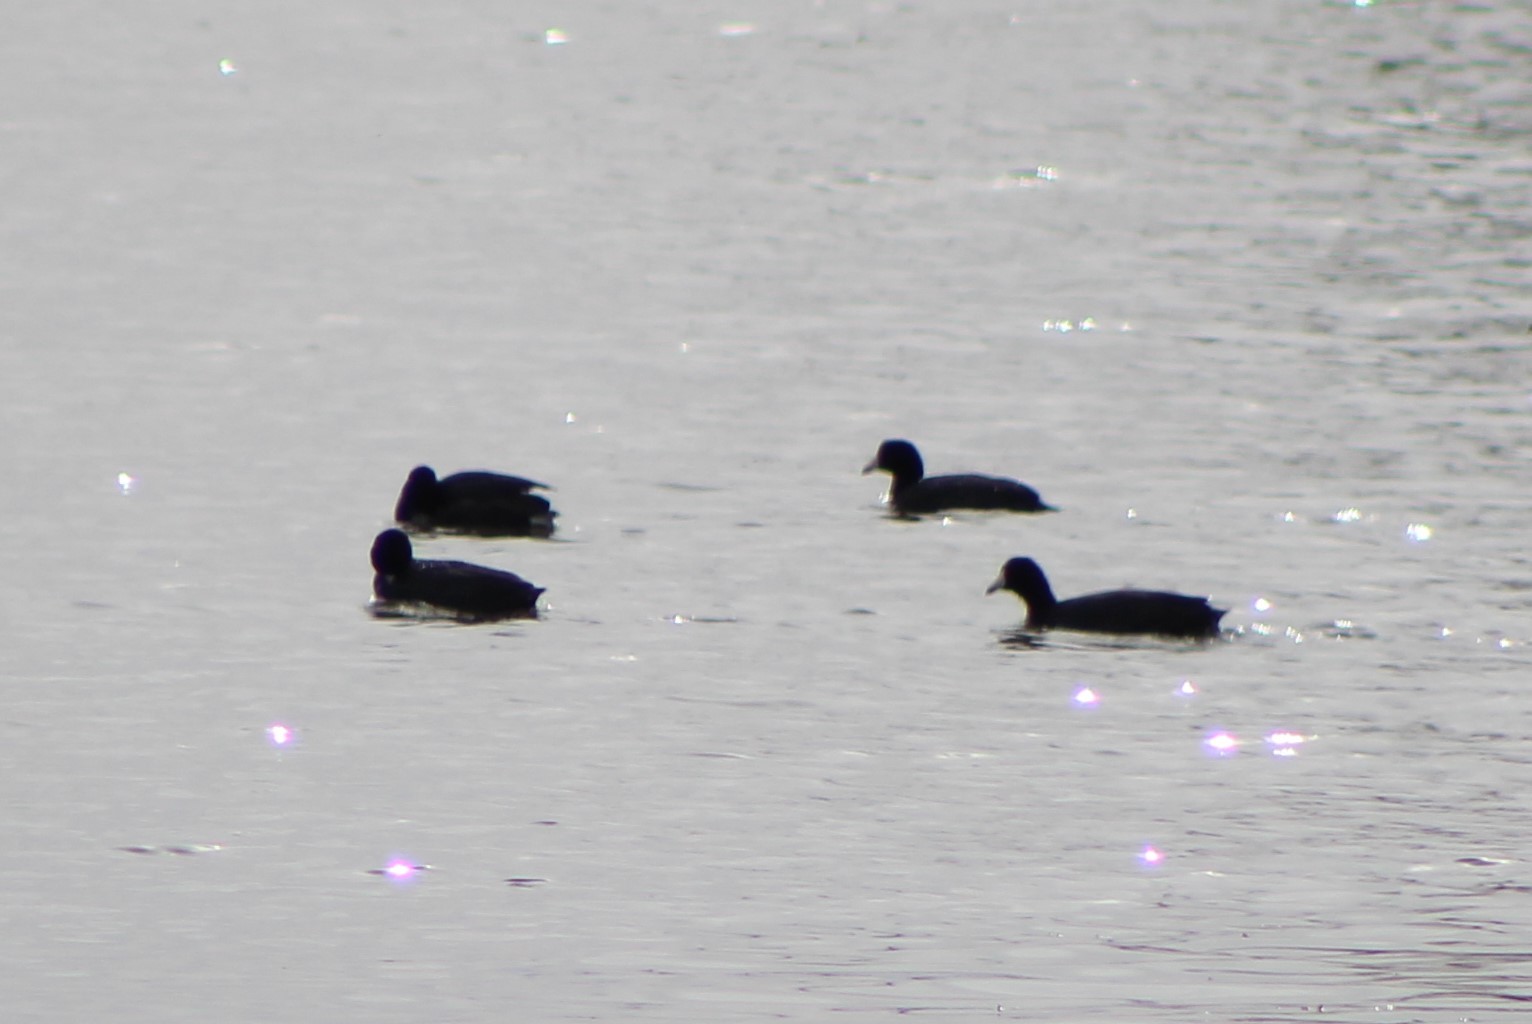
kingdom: Animalia
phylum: Chordata
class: Aves
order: Gruiformes
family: Rallidae
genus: Fulica
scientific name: Fulica americana
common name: American coot
